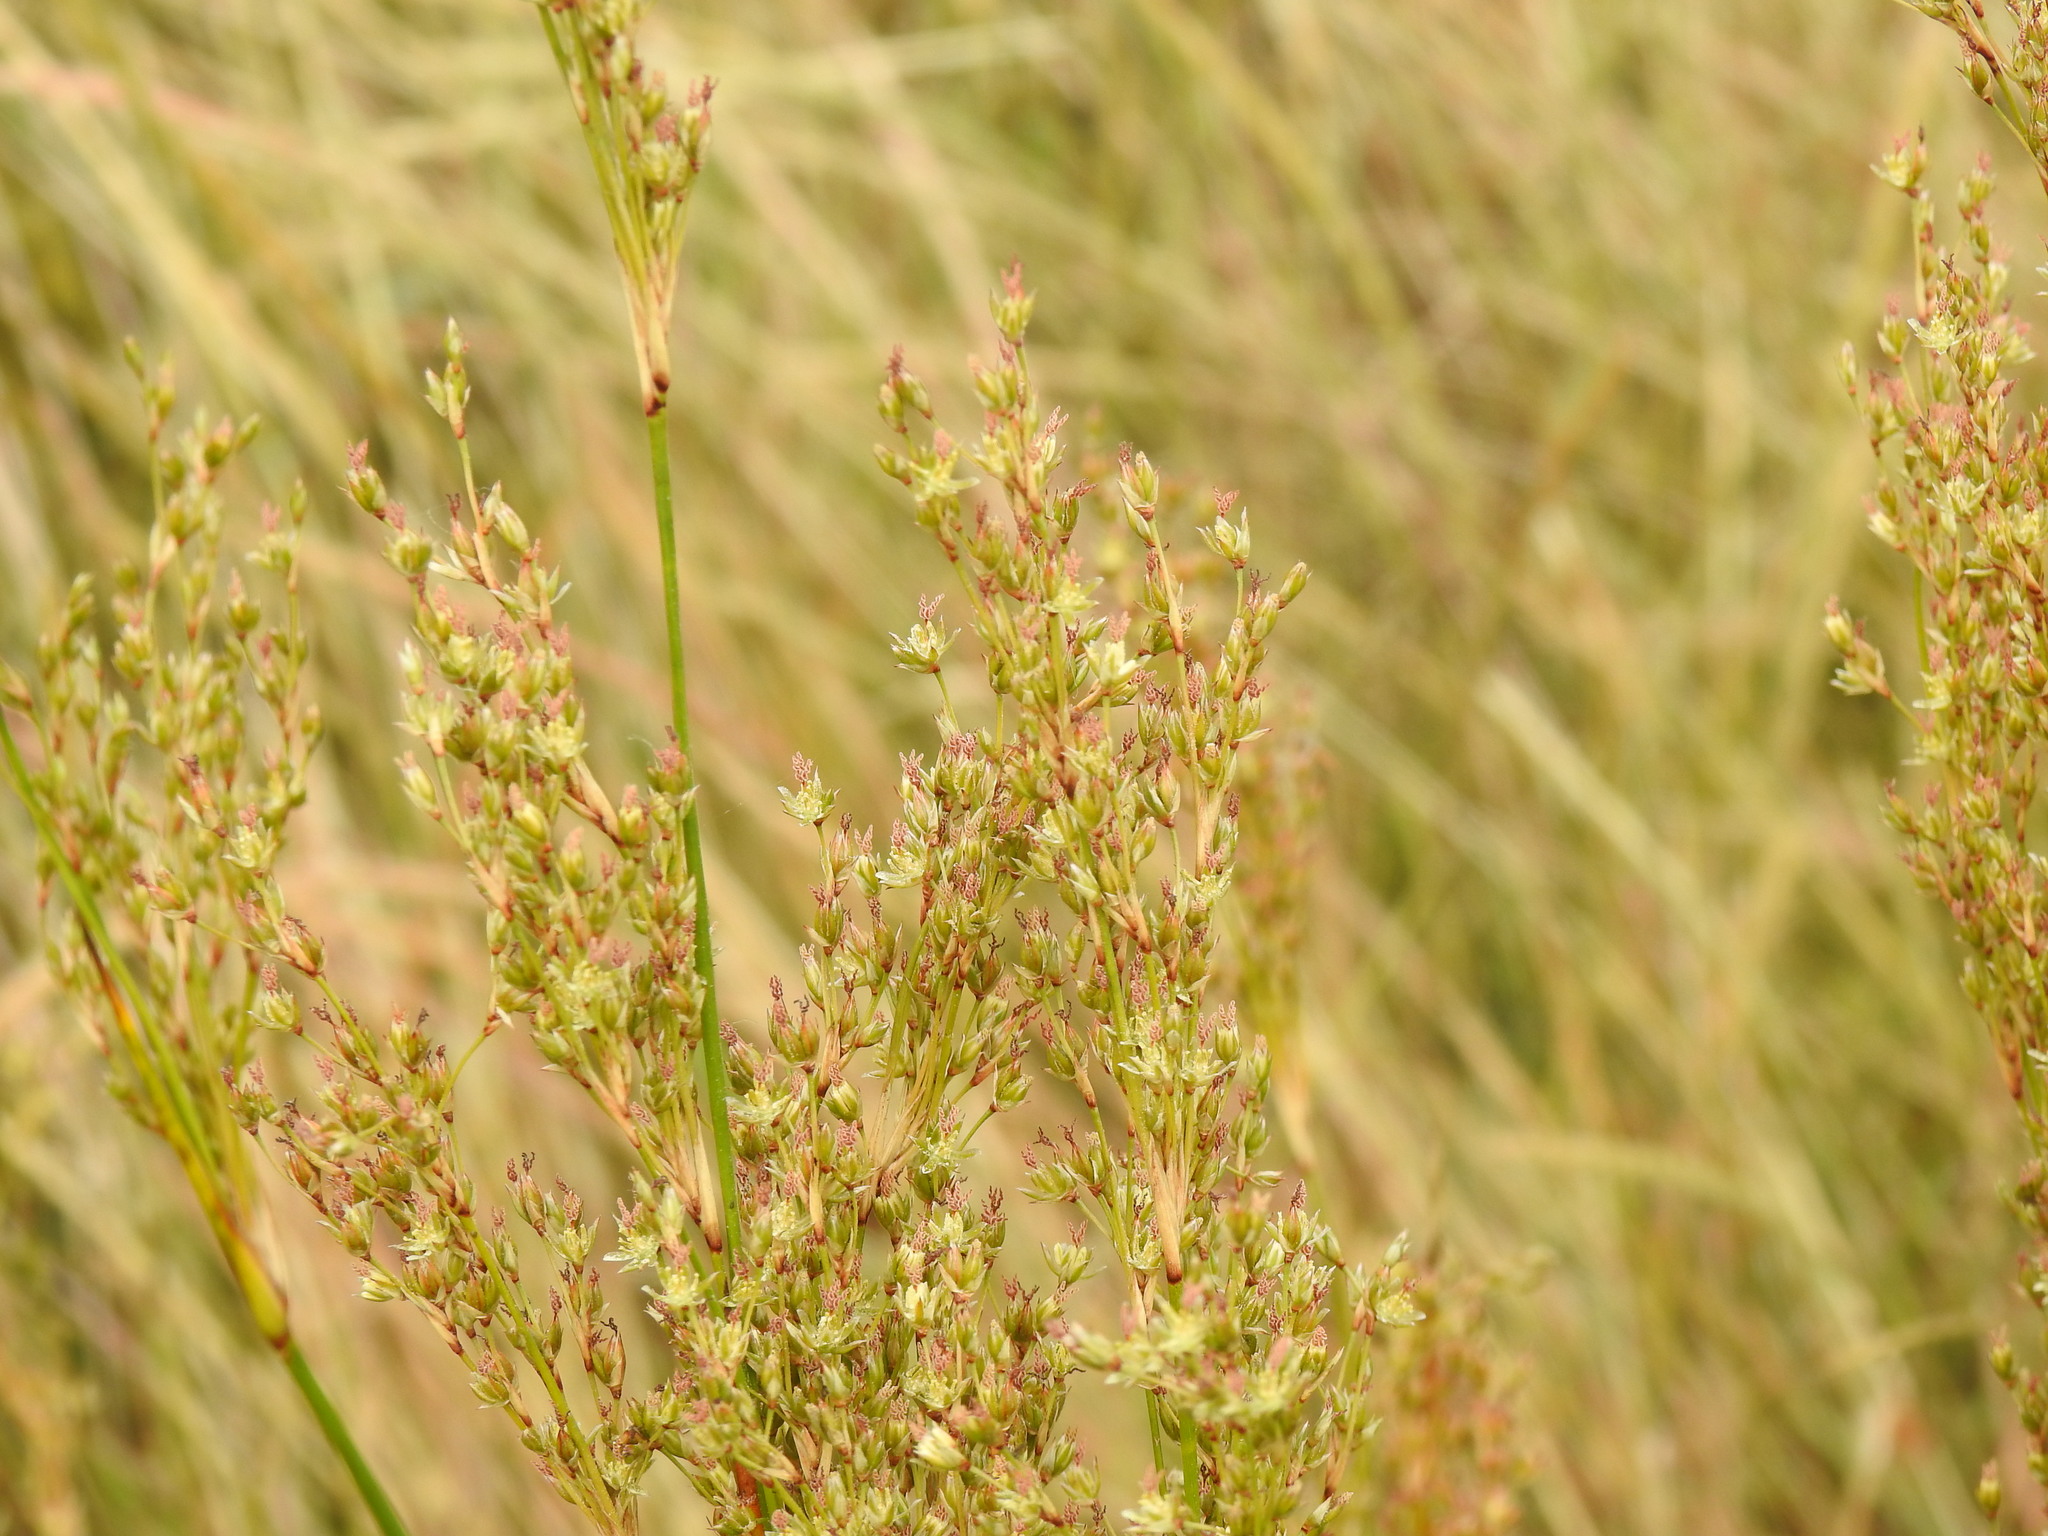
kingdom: Plantae
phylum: Tracheophyta
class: Liliopsida
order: Poales
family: Juncaceae
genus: Juncus
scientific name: Juncus maritimus
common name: Sea rush
